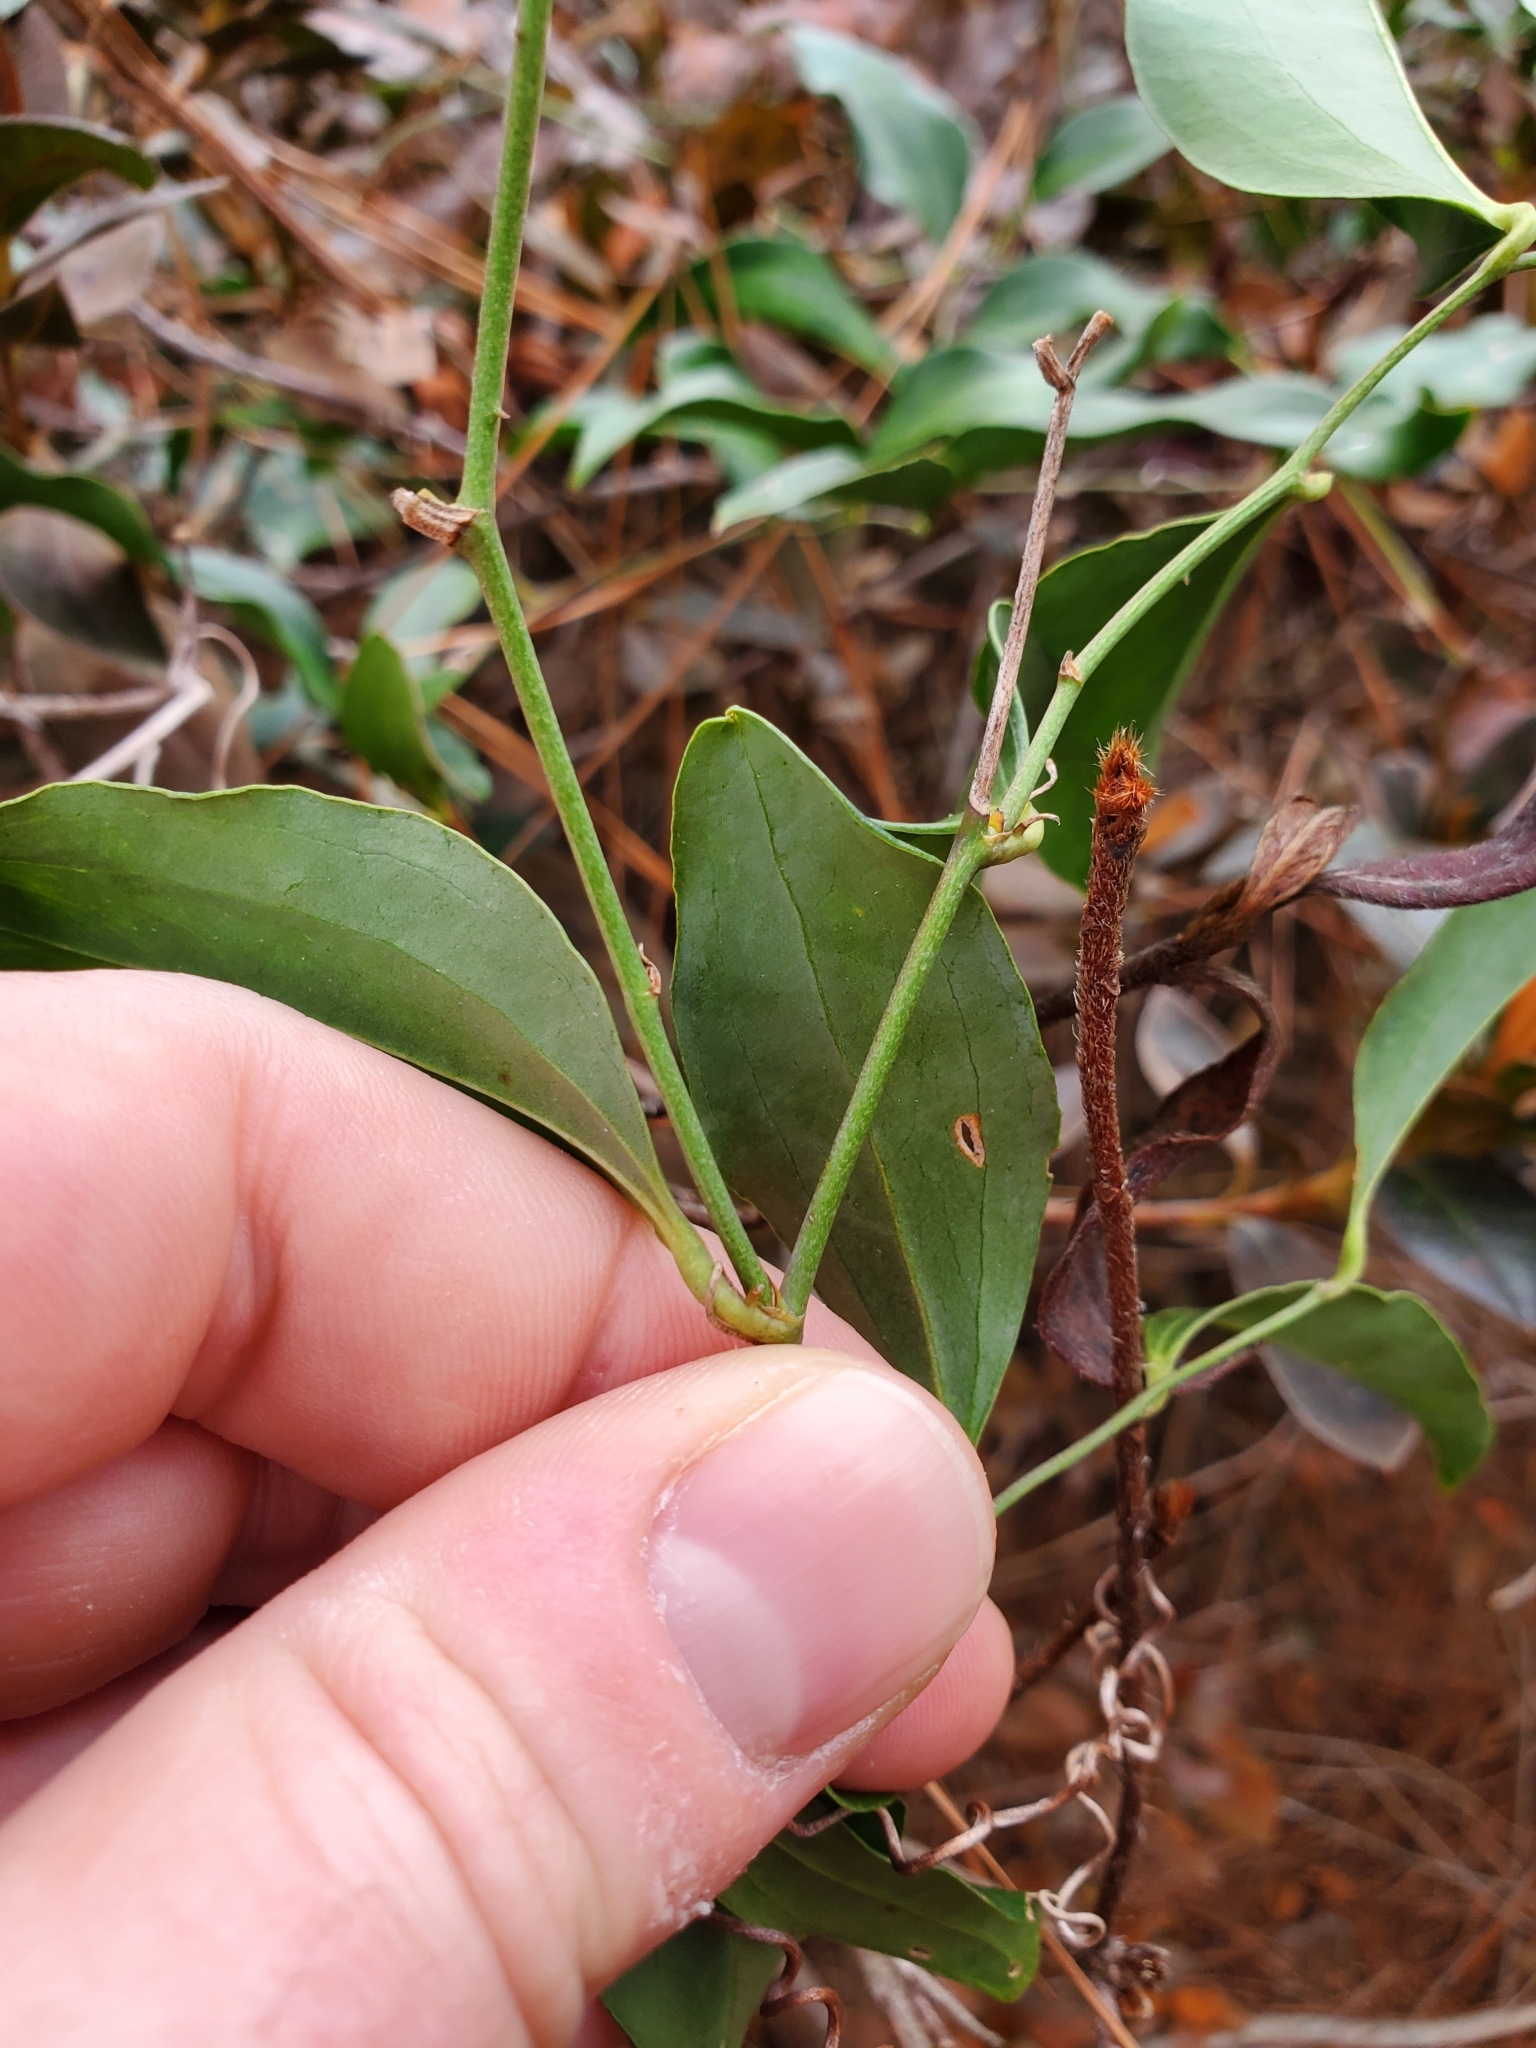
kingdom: Plantae
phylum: Tracheophyta
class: Liliopsida
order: Liliales
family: Smilacaceae
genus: Smilax
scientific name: Smilax maritima
